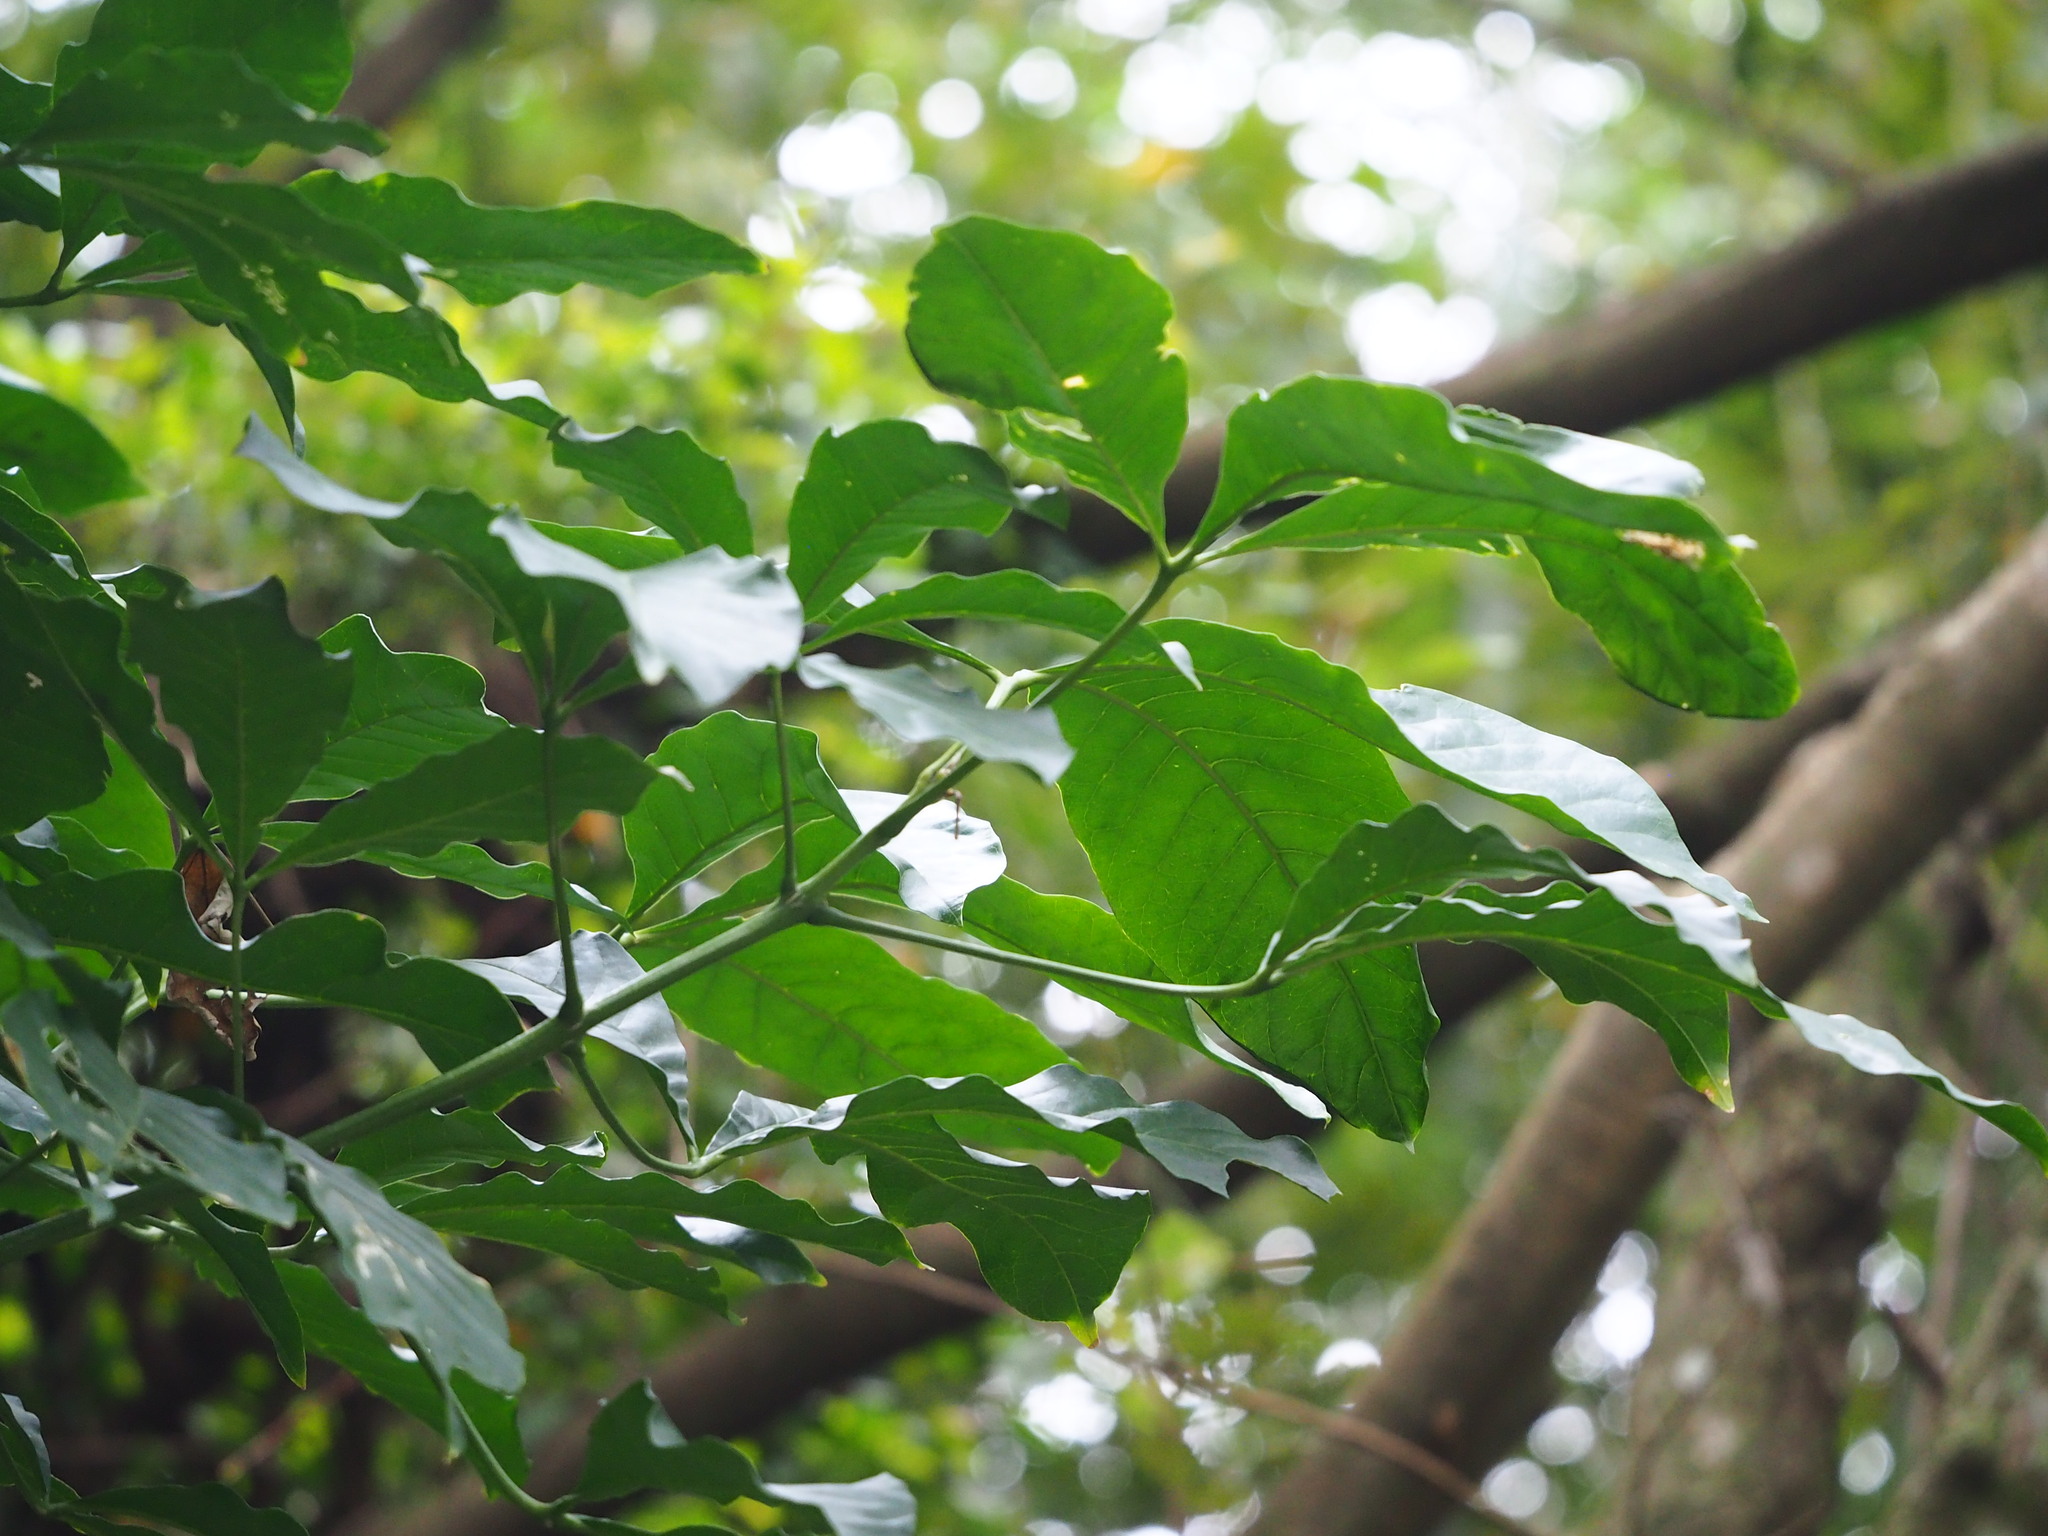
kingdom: Plantae
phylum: Tracheophyta
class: Magnoliopsida
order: Sapindales
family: Rutaceae
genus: Melicope
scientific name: Melicope pteleifolia
